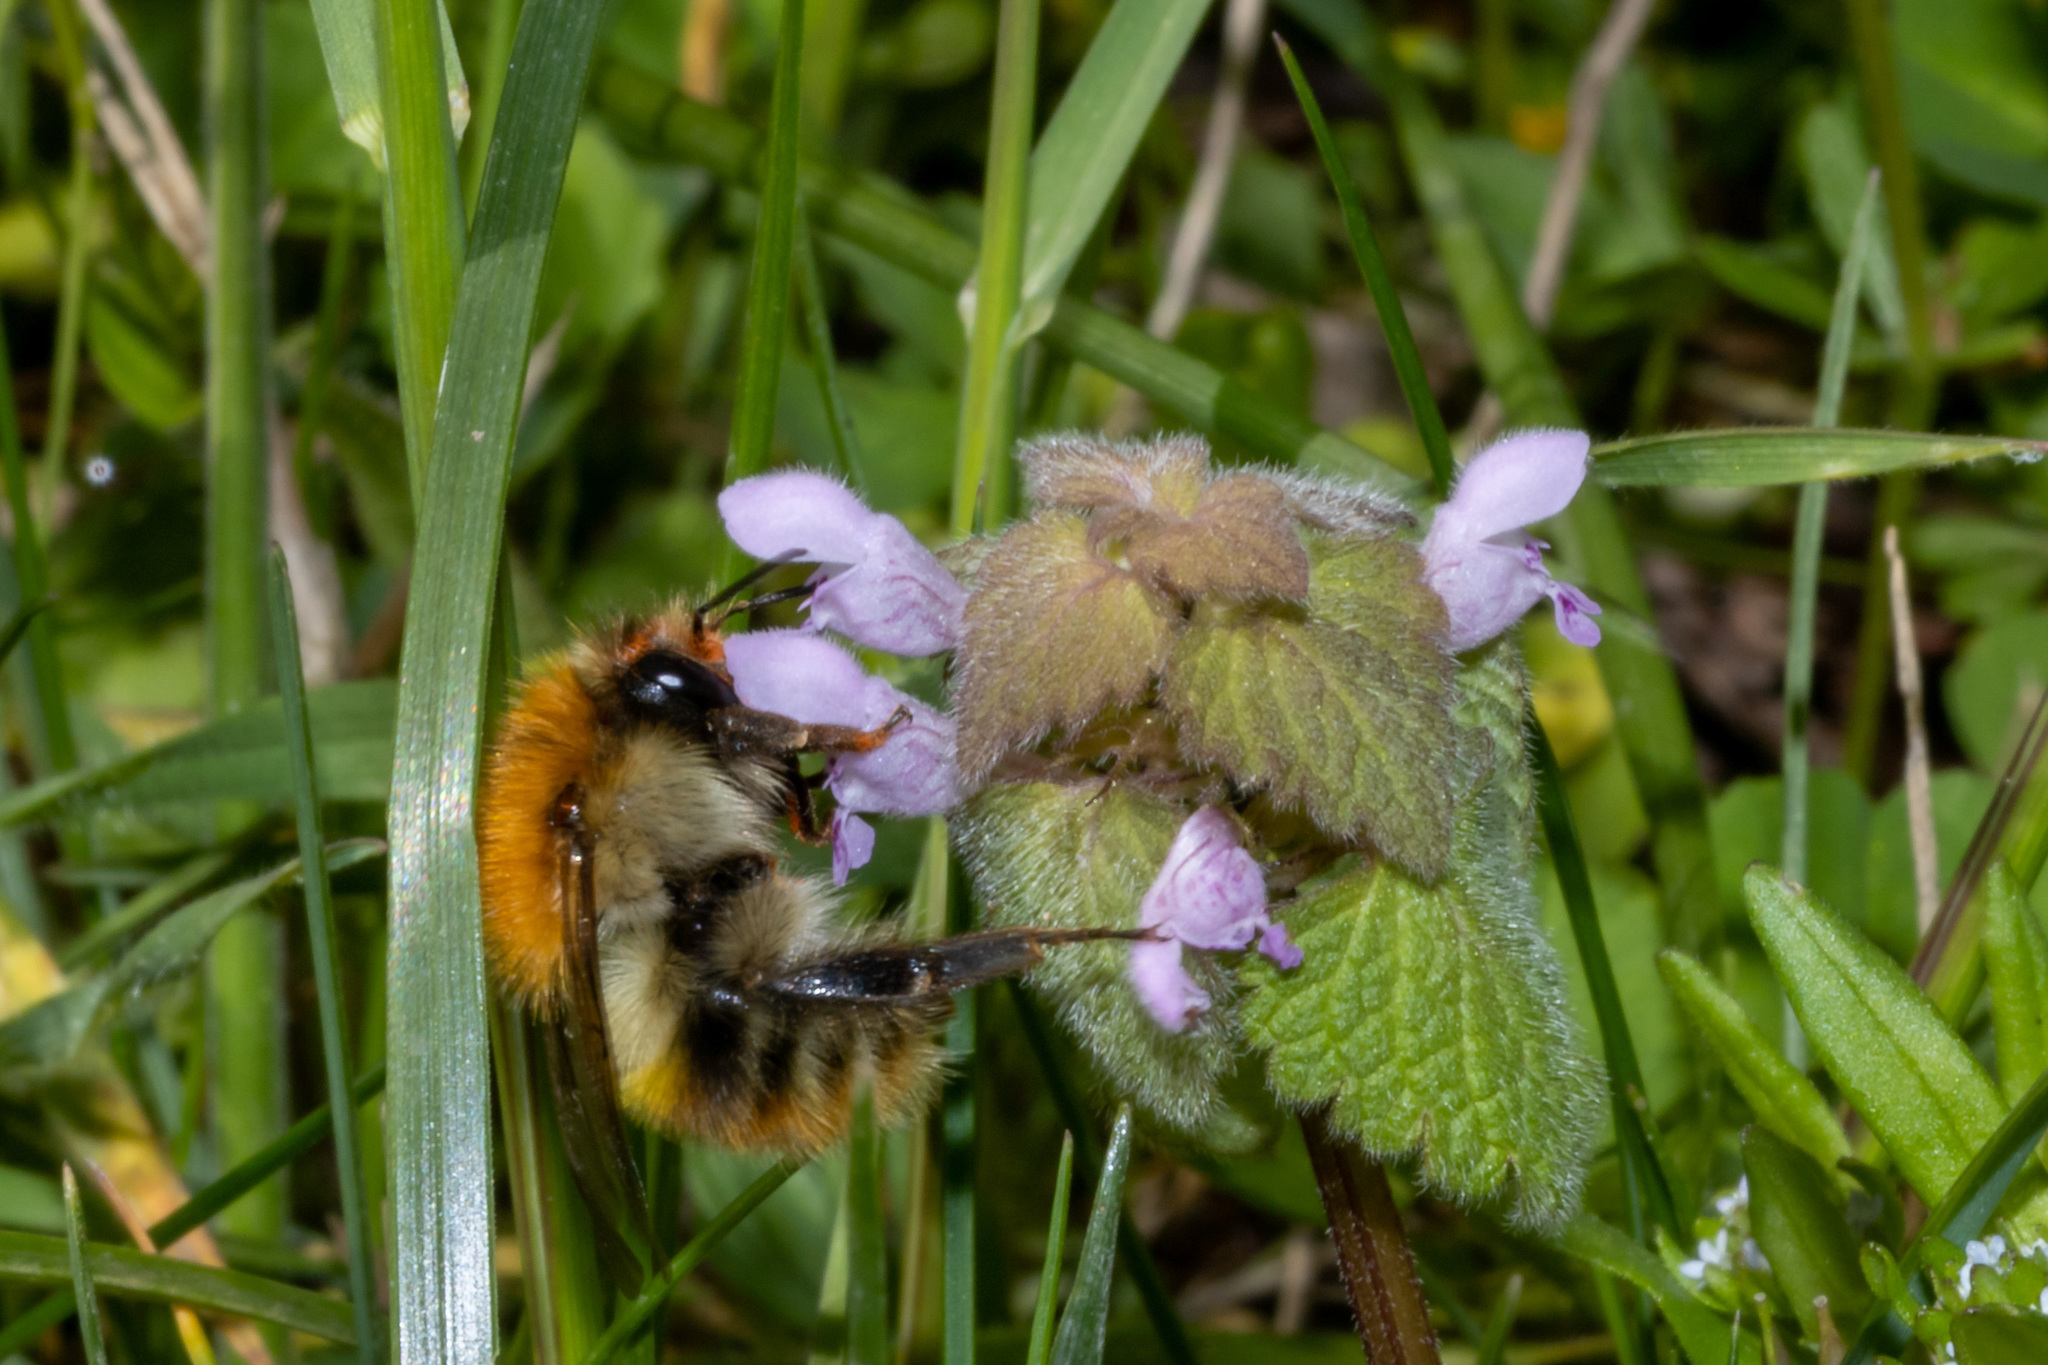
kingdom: Animalia
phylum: Arthropoda
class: Insecta
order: Hymenoptera
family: Apidae
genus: Bombus
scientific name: Bombus pascuorum
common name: Common carder bee
